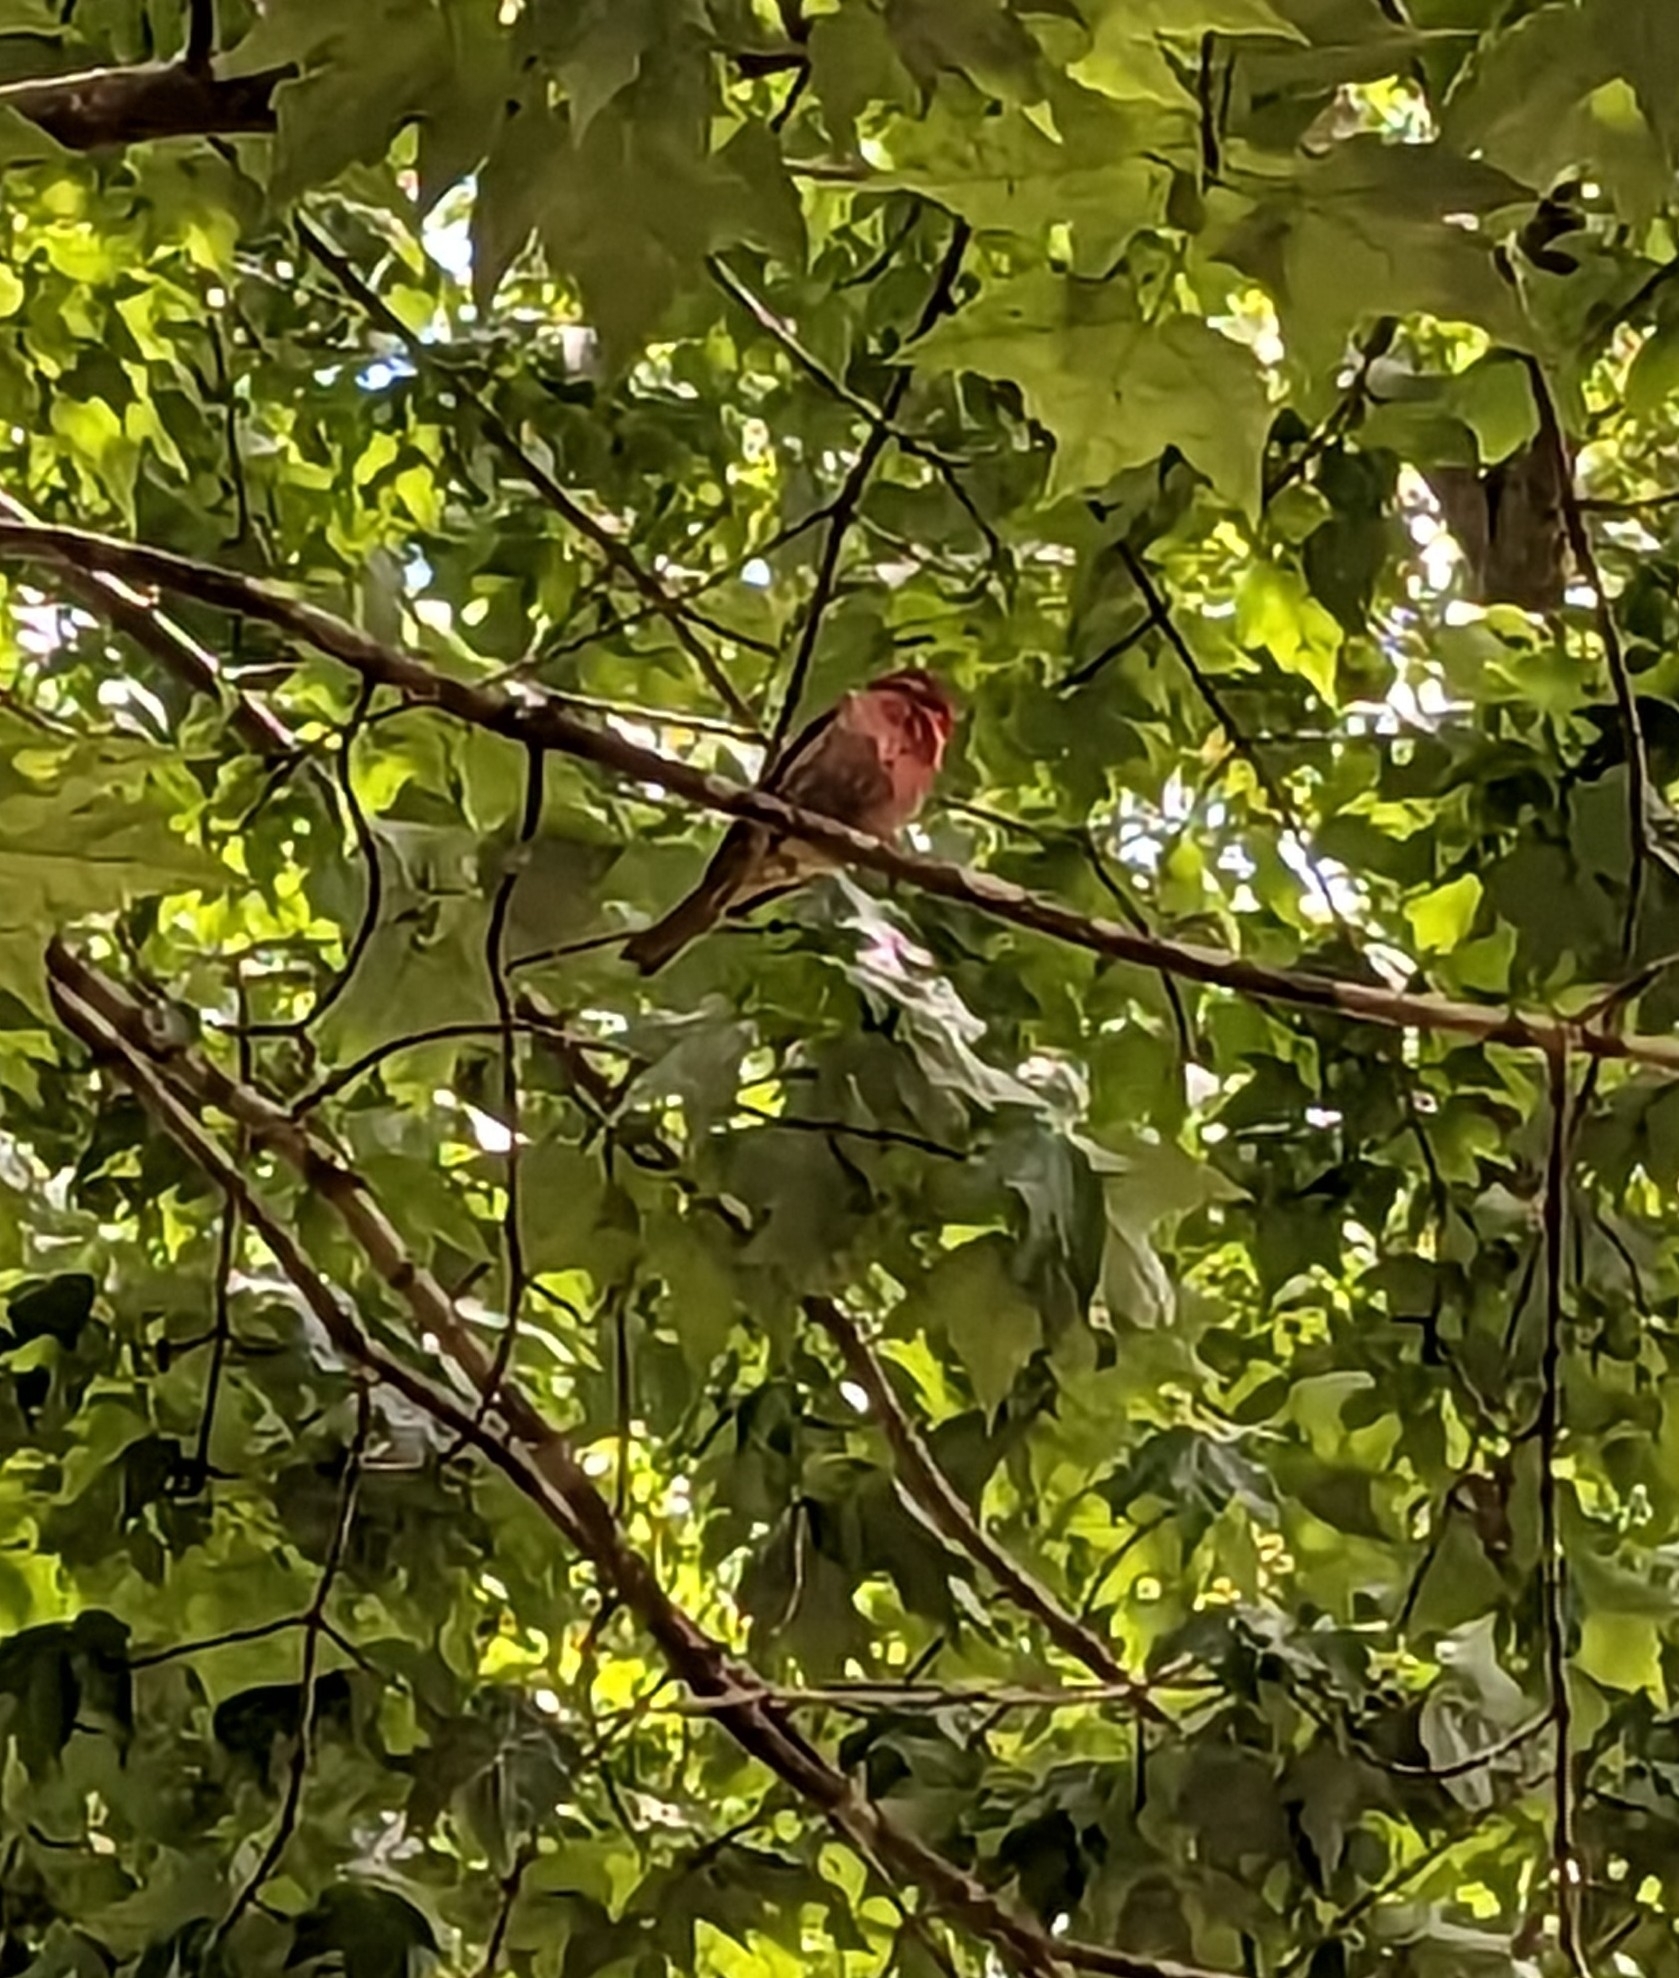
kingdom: Animalia
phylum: Chordata
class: Aves
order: Passeriformes
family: Fringillidae
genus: Haemorhous
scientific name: Haemorhous mexicanus
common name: House finch
